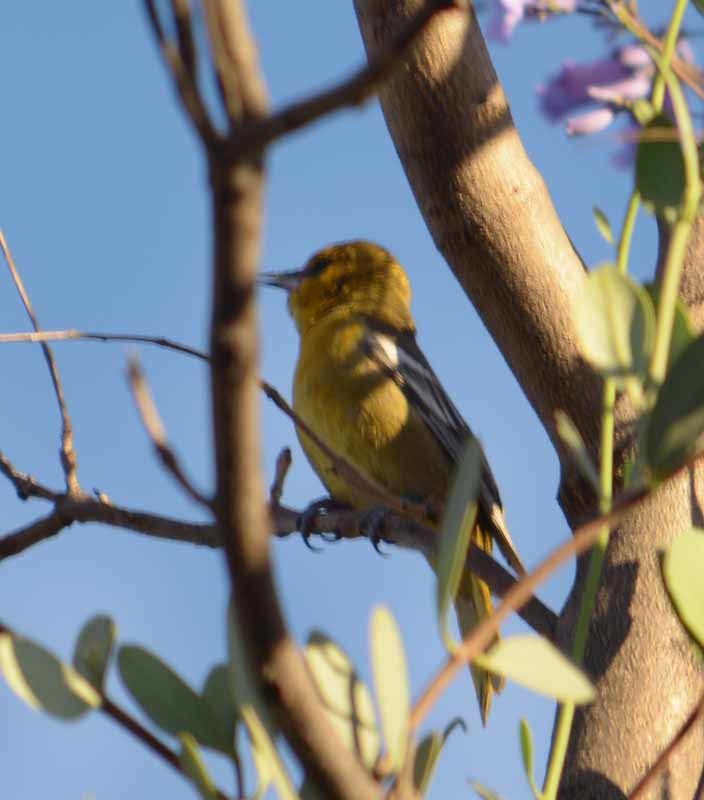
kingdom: Animalia
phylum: Chordata
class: Aves
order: Passeriformes
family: Icteridae
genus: Icterus
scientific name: Icterus abeillei
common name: Black-backed oriole
